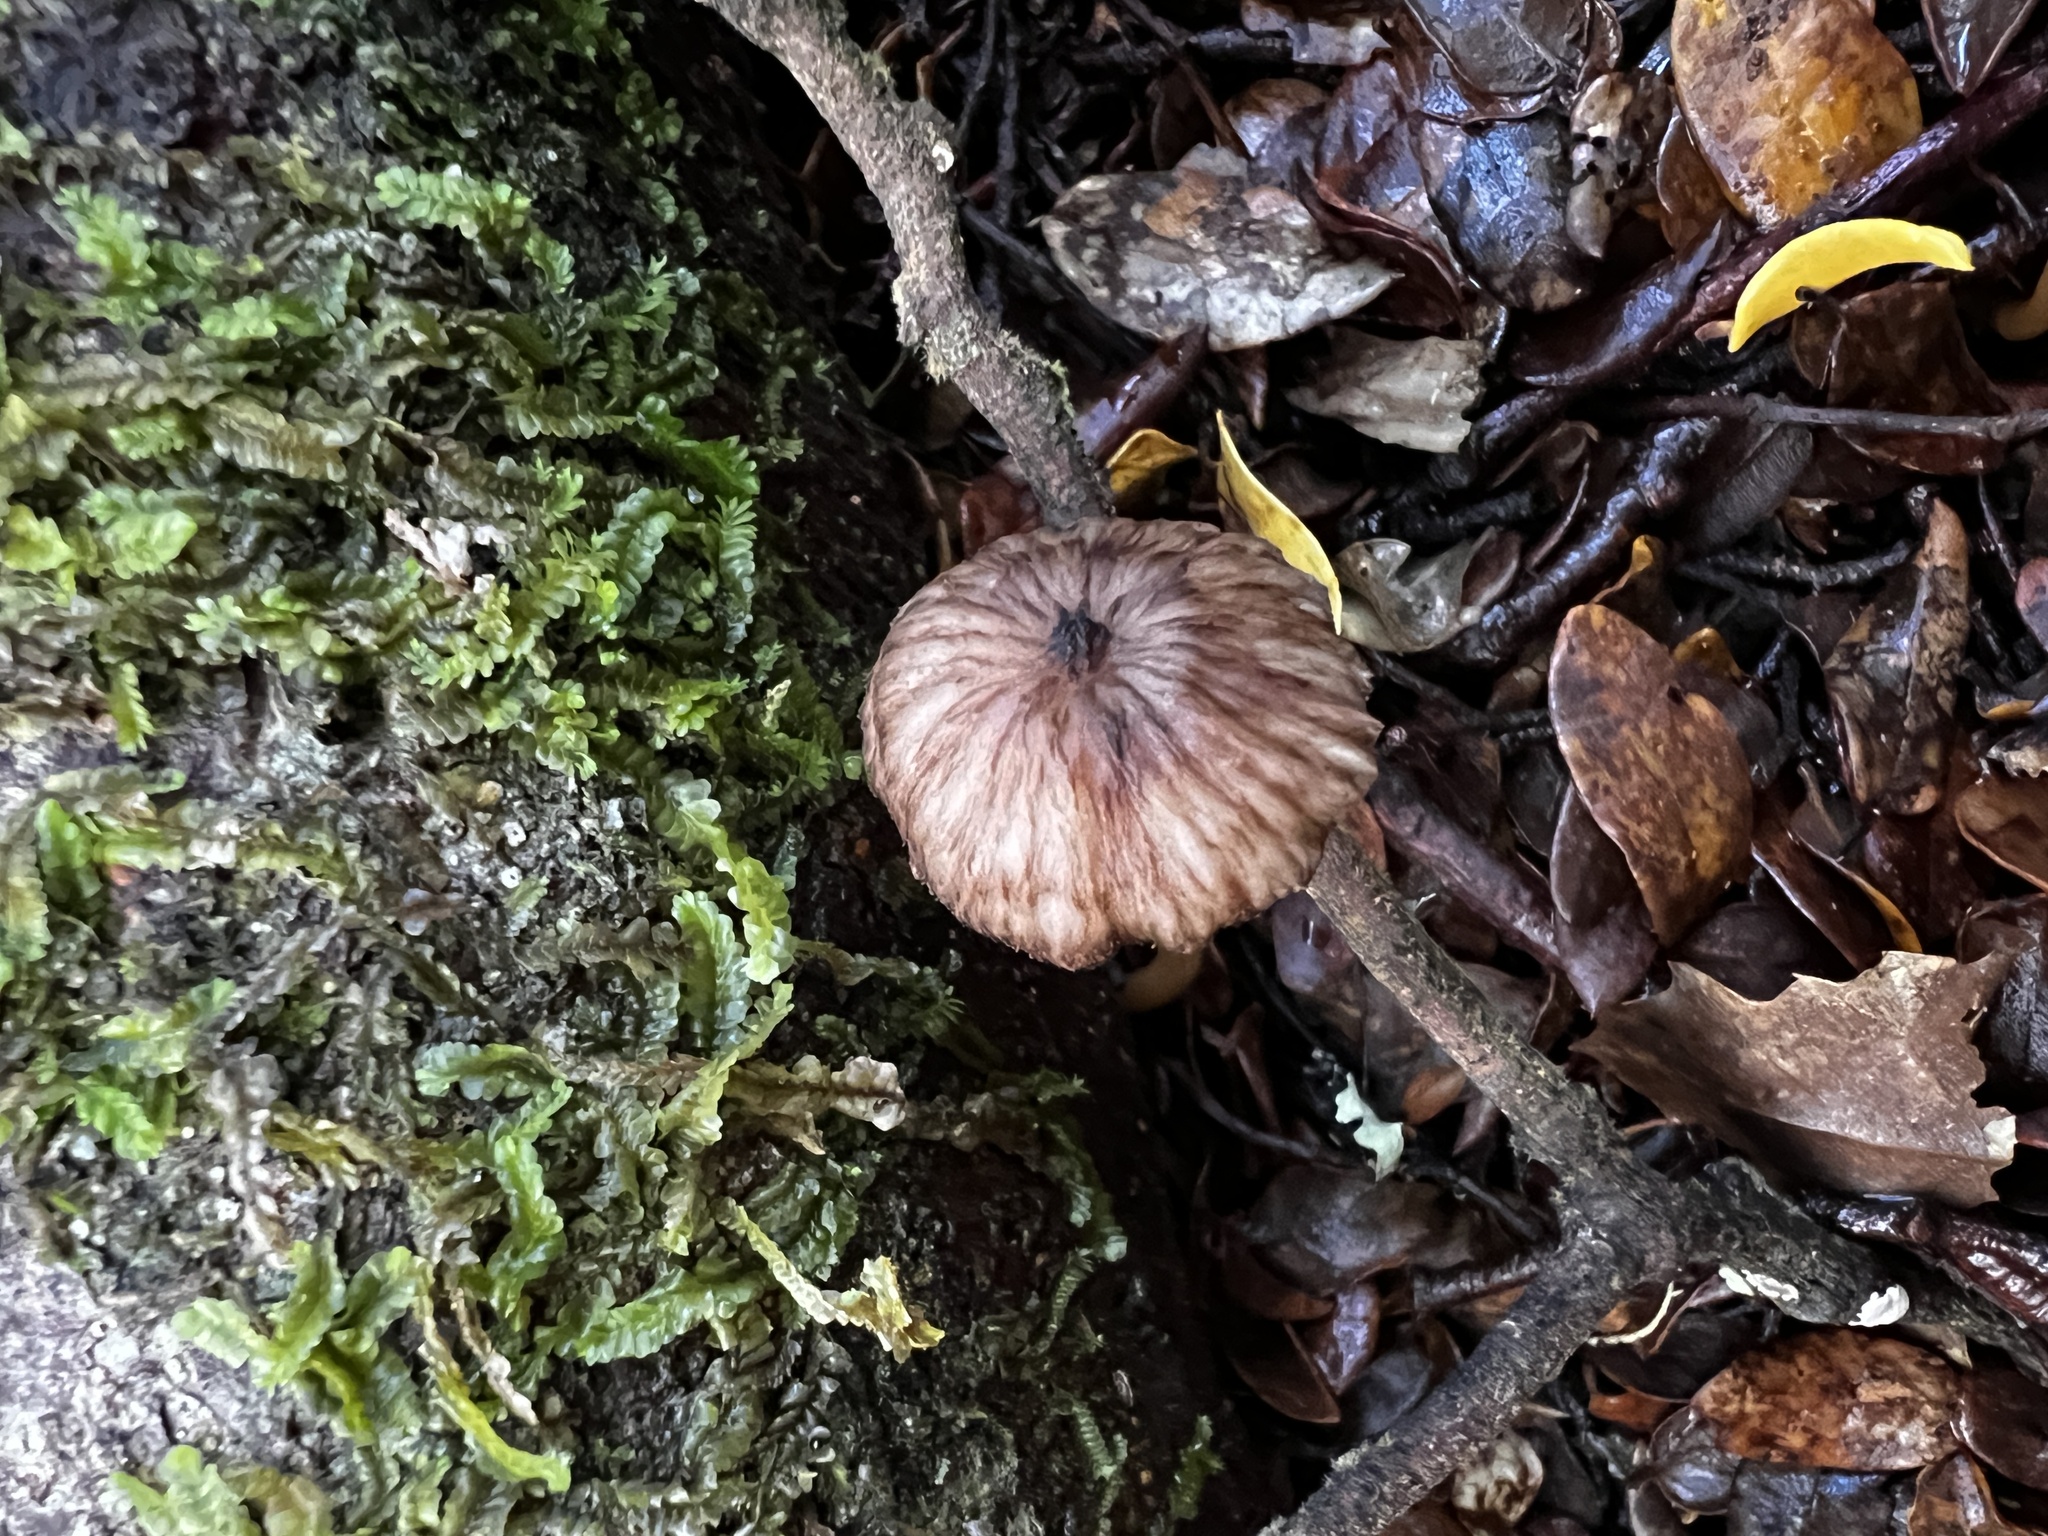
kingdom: Fungi
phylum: Basidiomycota
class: Agaricomycetes
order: Agaricales
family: Hydnangiaceae
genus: Laccaria
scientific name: Laccaria masoniae
